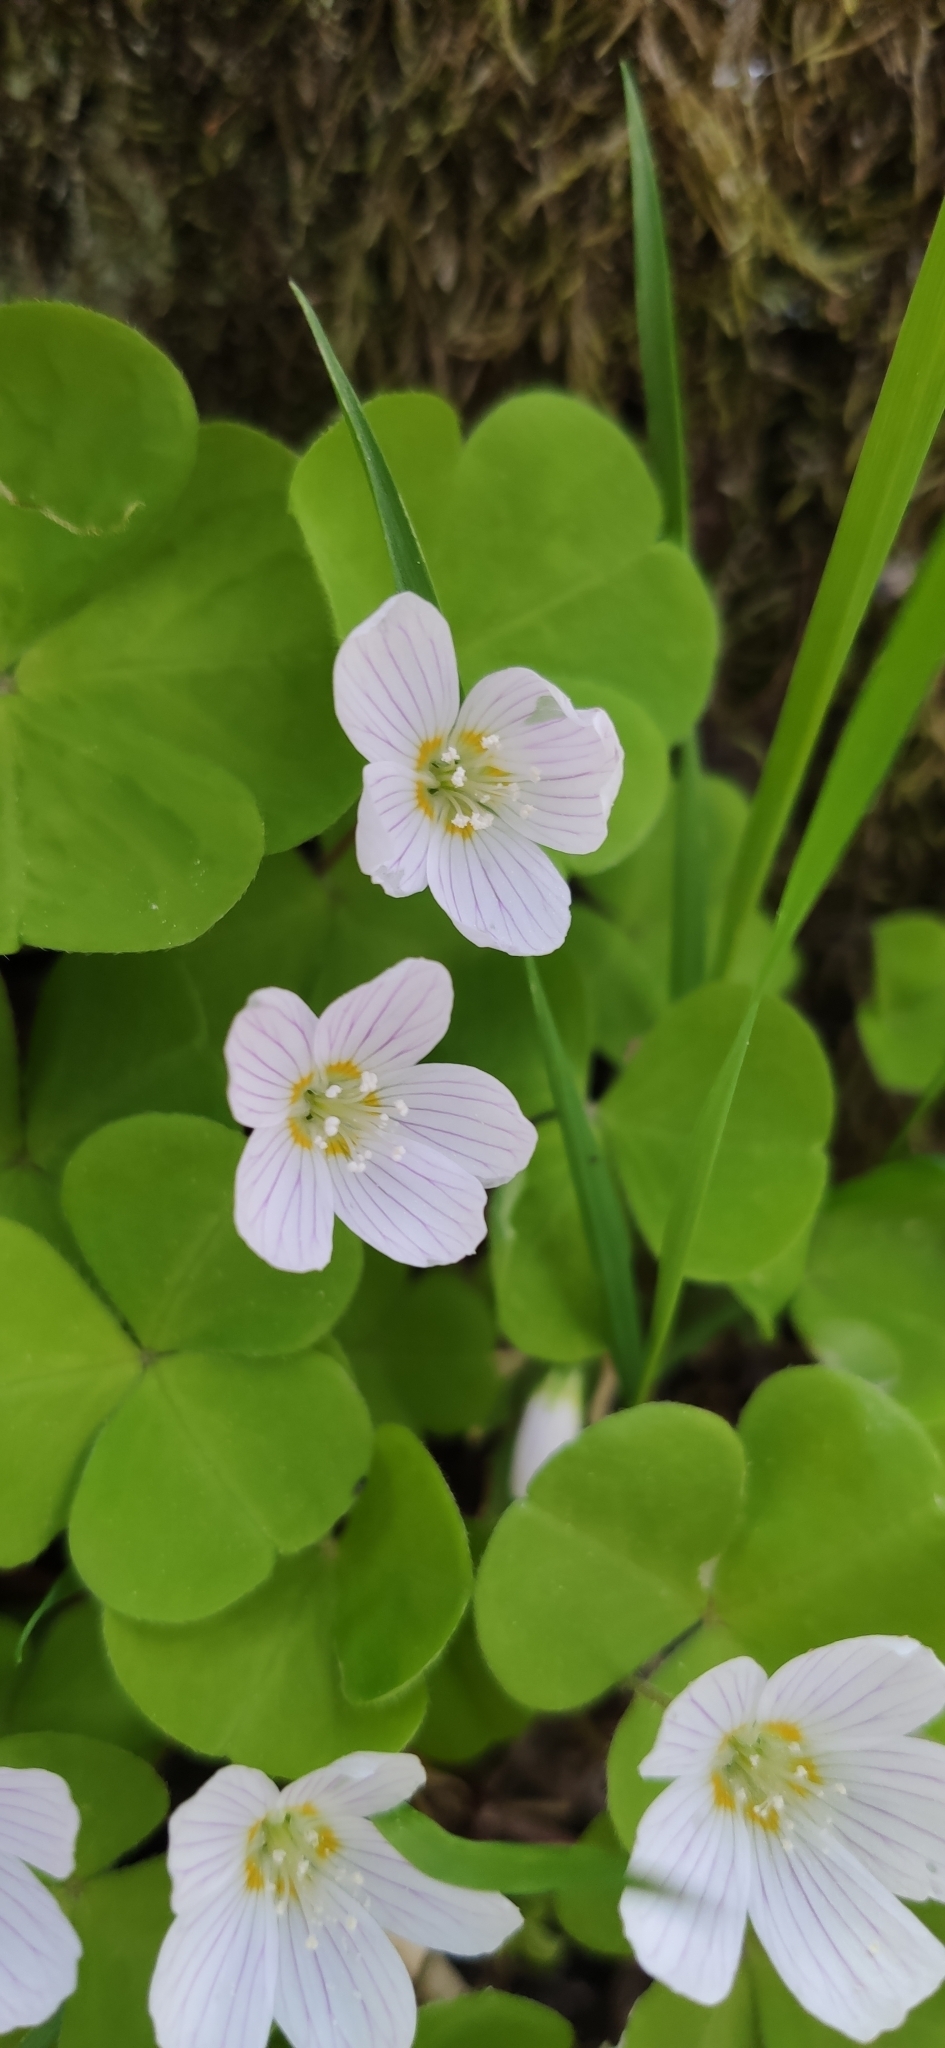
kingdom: Plantae
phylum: Tracheophyta
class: Magnoliopsida
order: Oxalidales
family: Oxalidaceae
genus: Oxalis
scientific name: Oxalis acetosella
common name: Wood-sorrel
